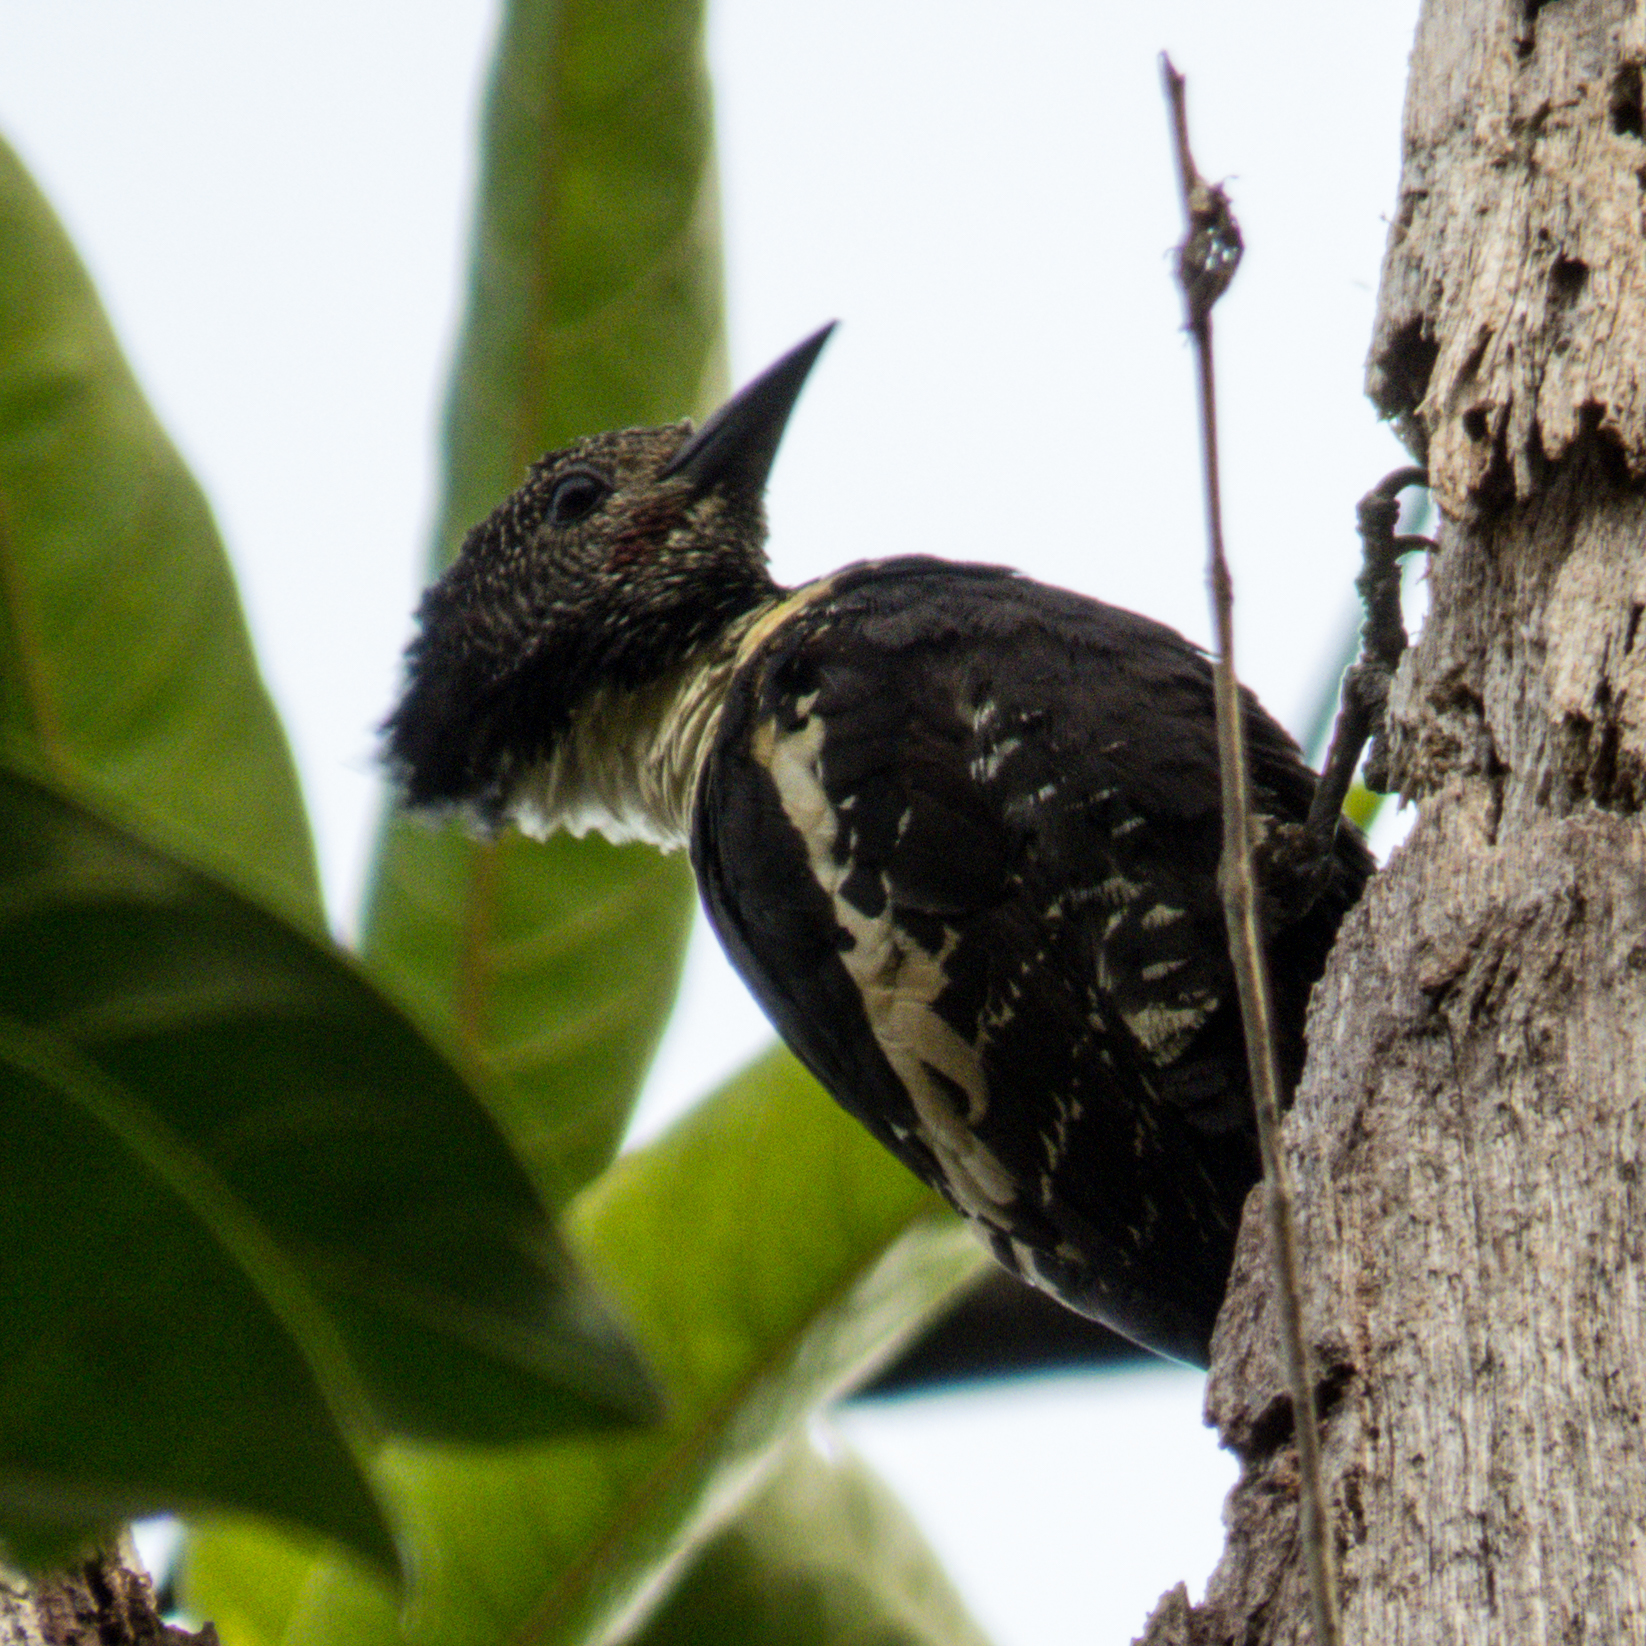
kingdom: Animalia
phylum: Chordata
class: Aves
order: Piciformes
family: Picidae
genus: Meiglyptes
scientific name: Meiglyptes jugularis
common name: Black-and-buff woodpecker
